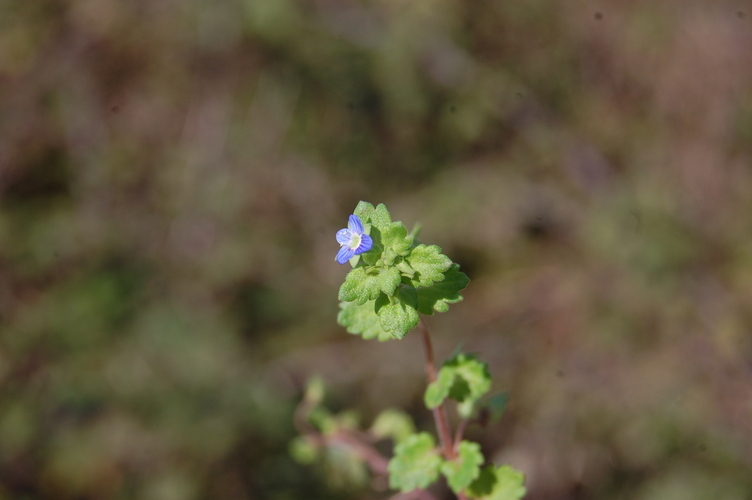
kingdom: Plantae
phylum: Tracheophyta
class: Magnoliopsida
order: Lamiales
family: Plantaginaceae
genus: Veronica
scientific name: Veronica persica
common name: Common field-speedwell
